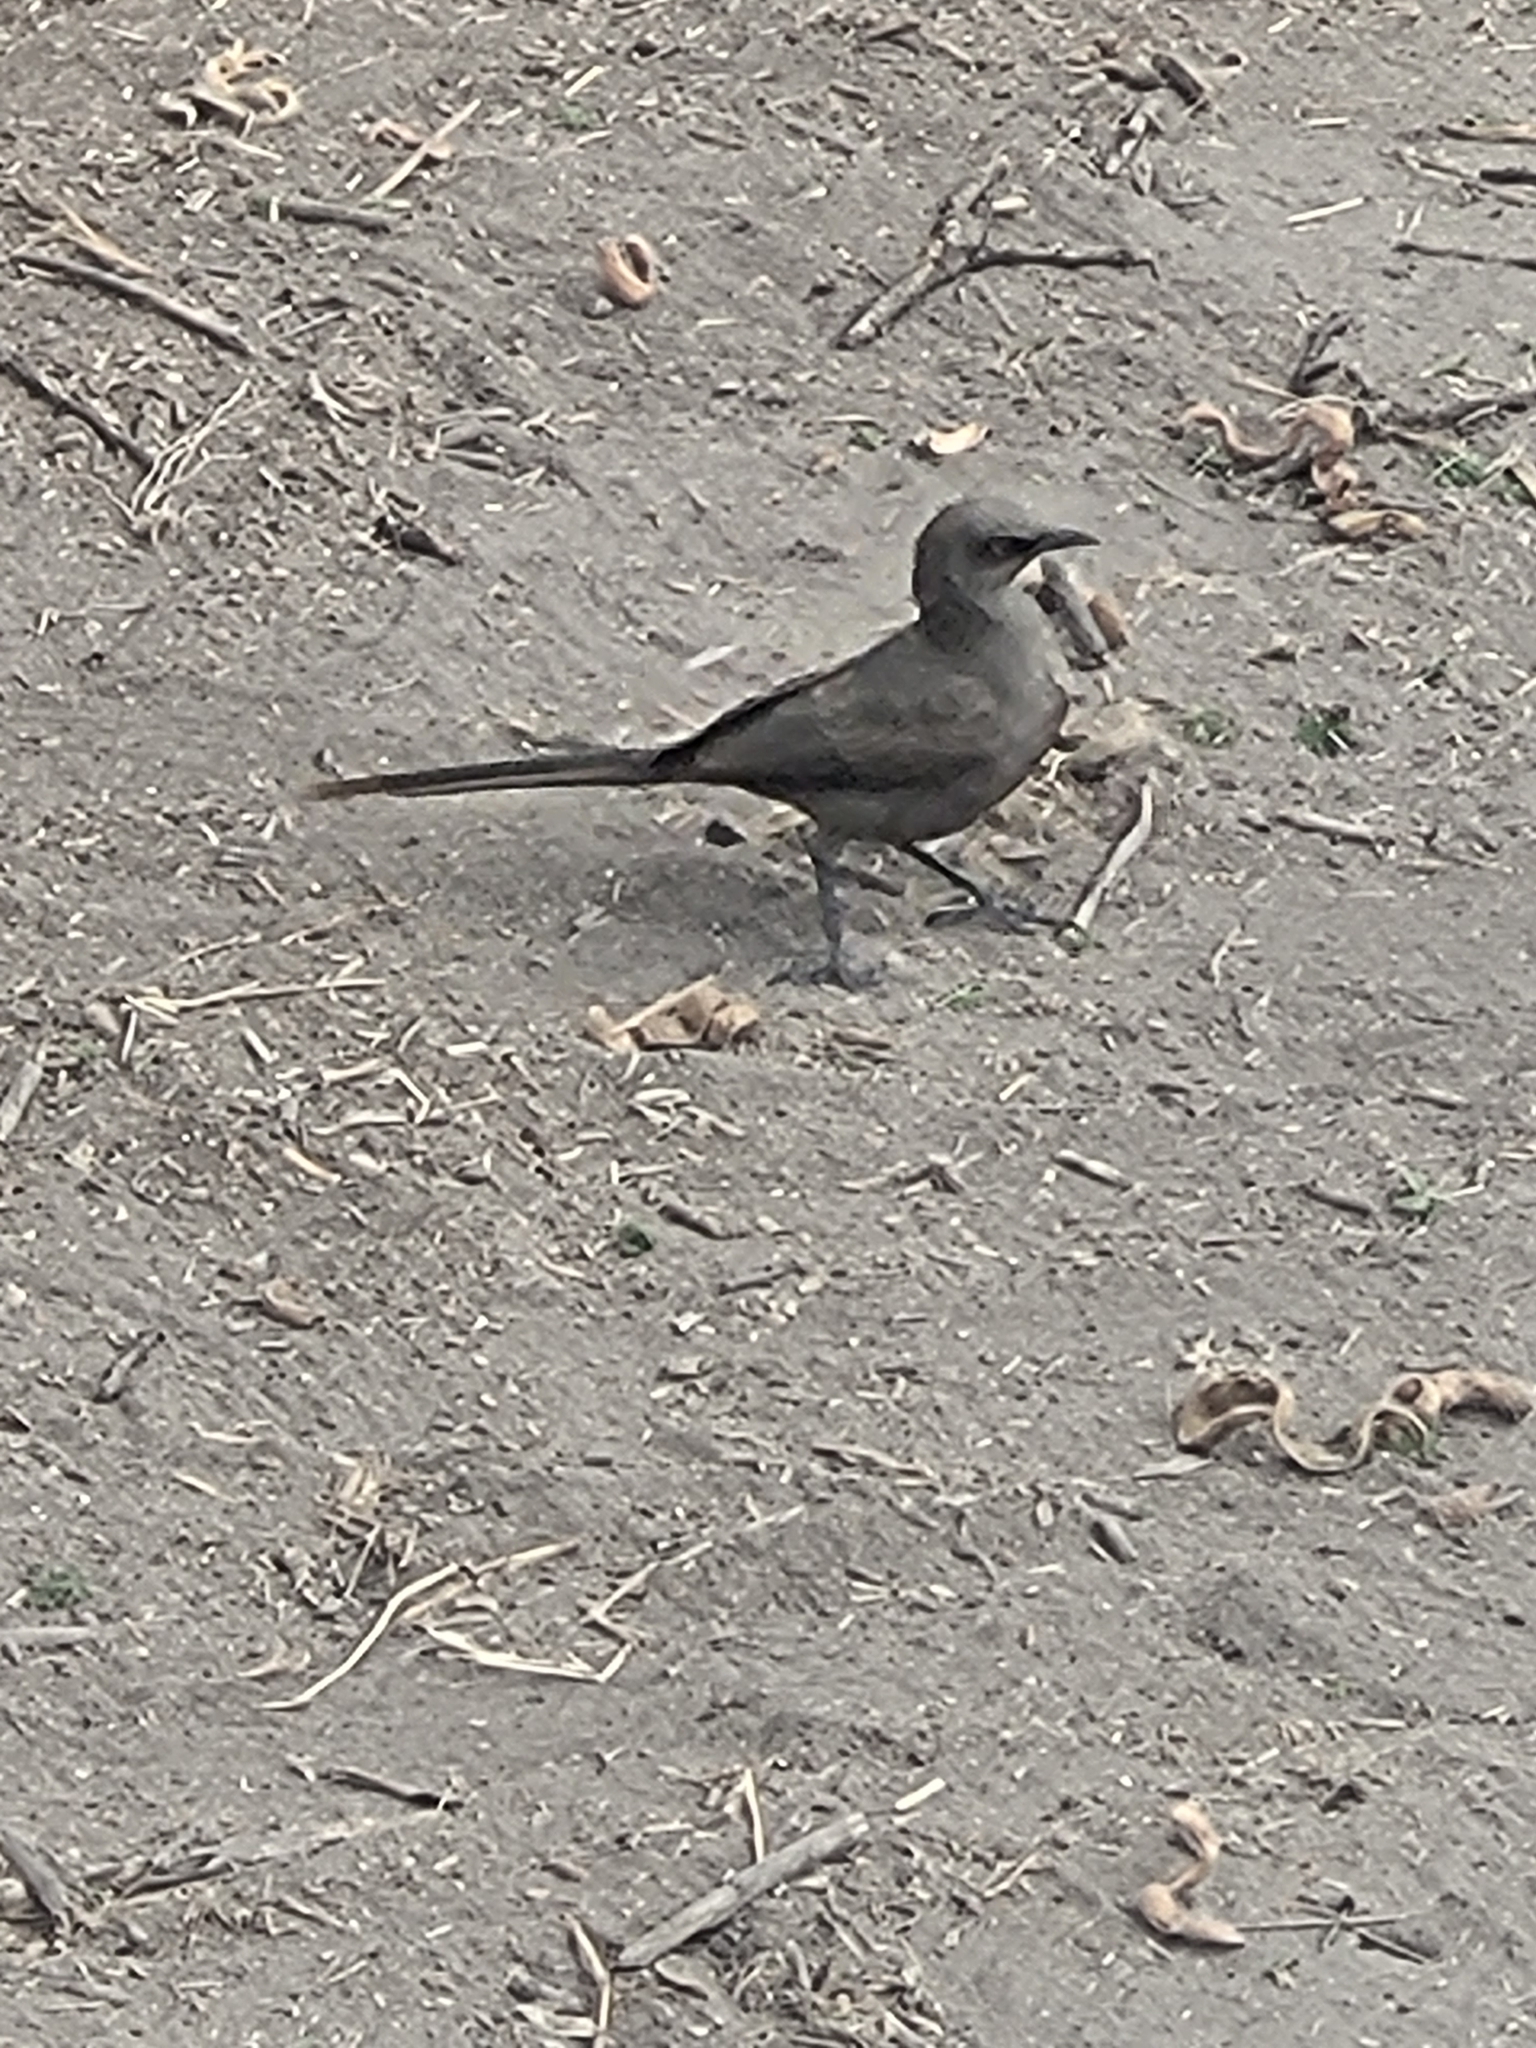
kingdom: Animalia
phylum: Chordata
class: Aves
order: Passeriformes
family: Sturnidae
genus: Lamprotornis
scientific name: Lamprotornis unicolor
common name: Ashy starling
